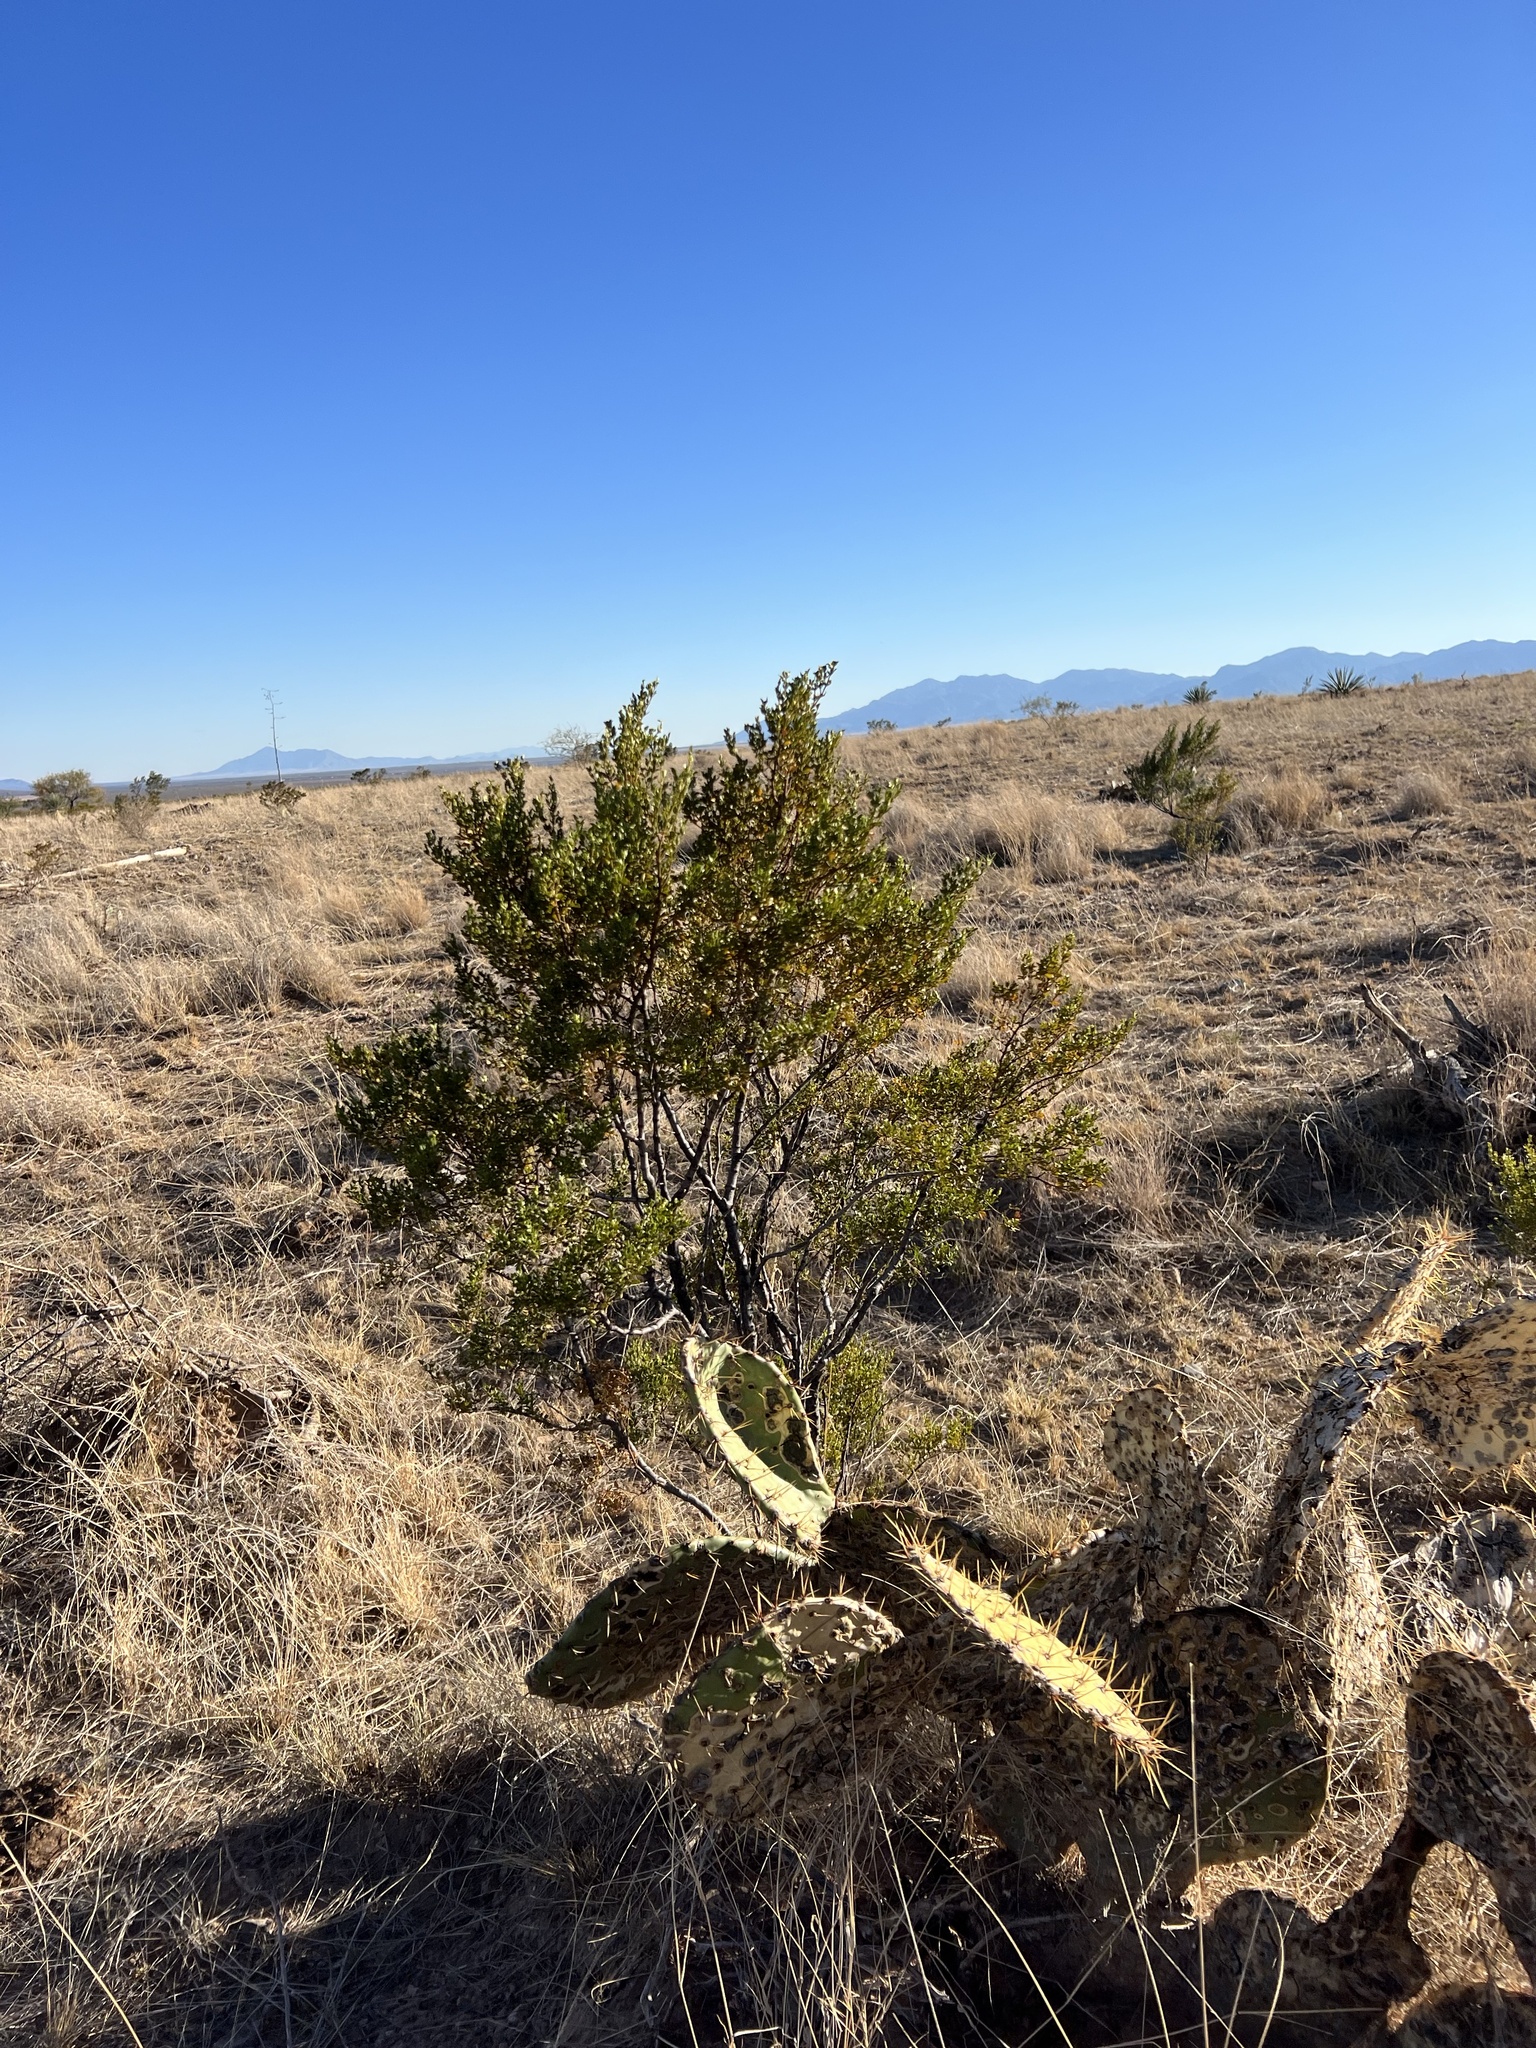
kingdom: Plantae
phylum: Tracheophyta
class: Magnoliopsida
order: Zygophyllales
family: Zygophyllaceae
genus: Larrea
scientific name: Larrea tridentata
